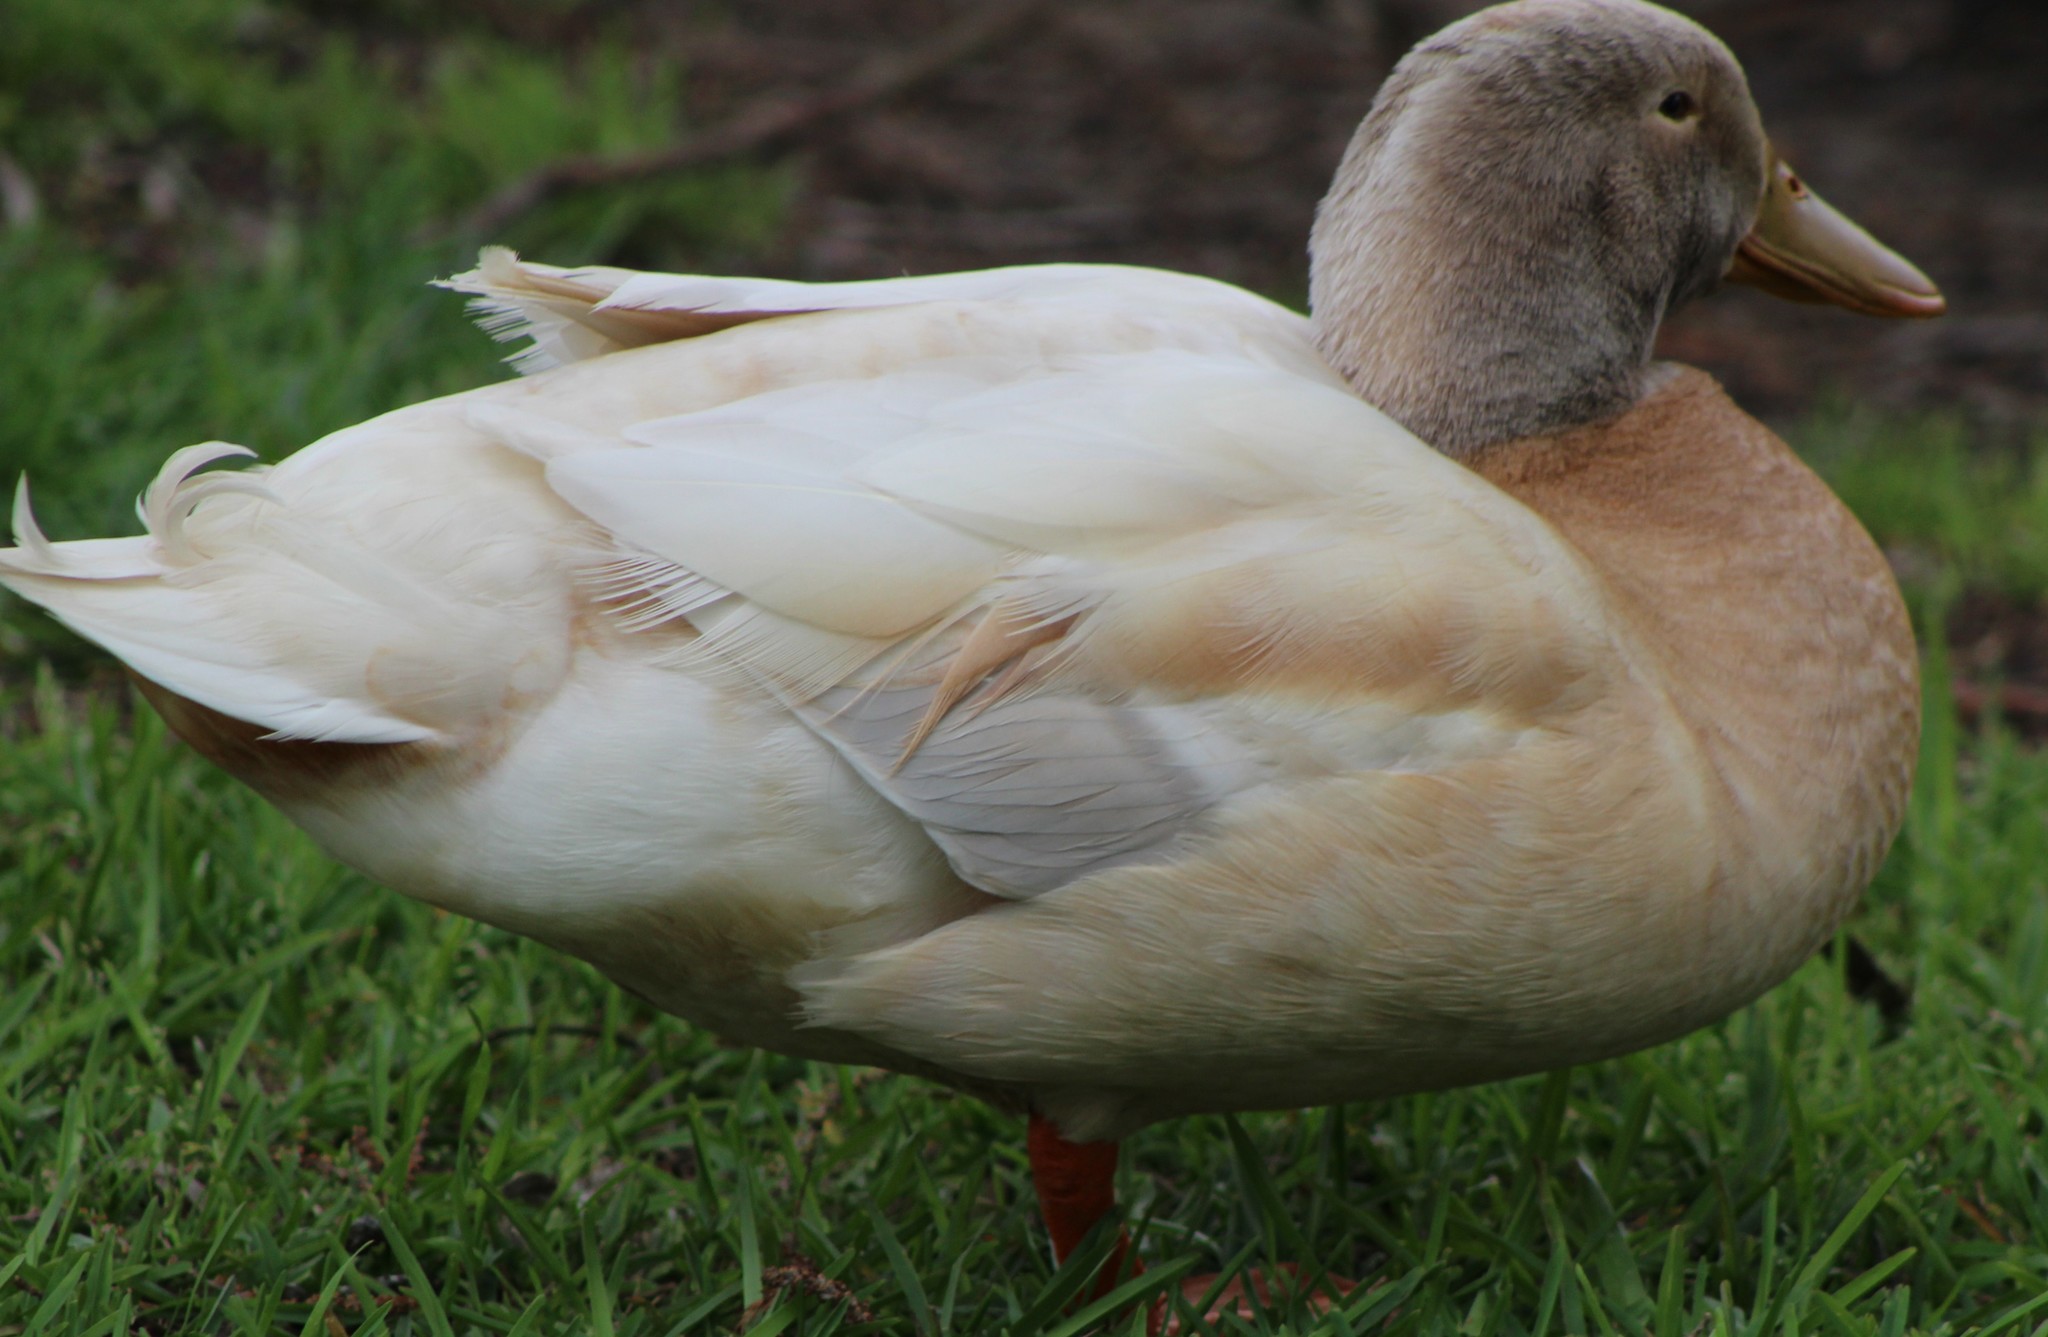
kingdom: Animalia
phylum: Chordata
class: Aves
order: Anseriformes
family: Anatidae
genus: Anas
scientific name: Anas platyrhynchos
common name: Mallard
